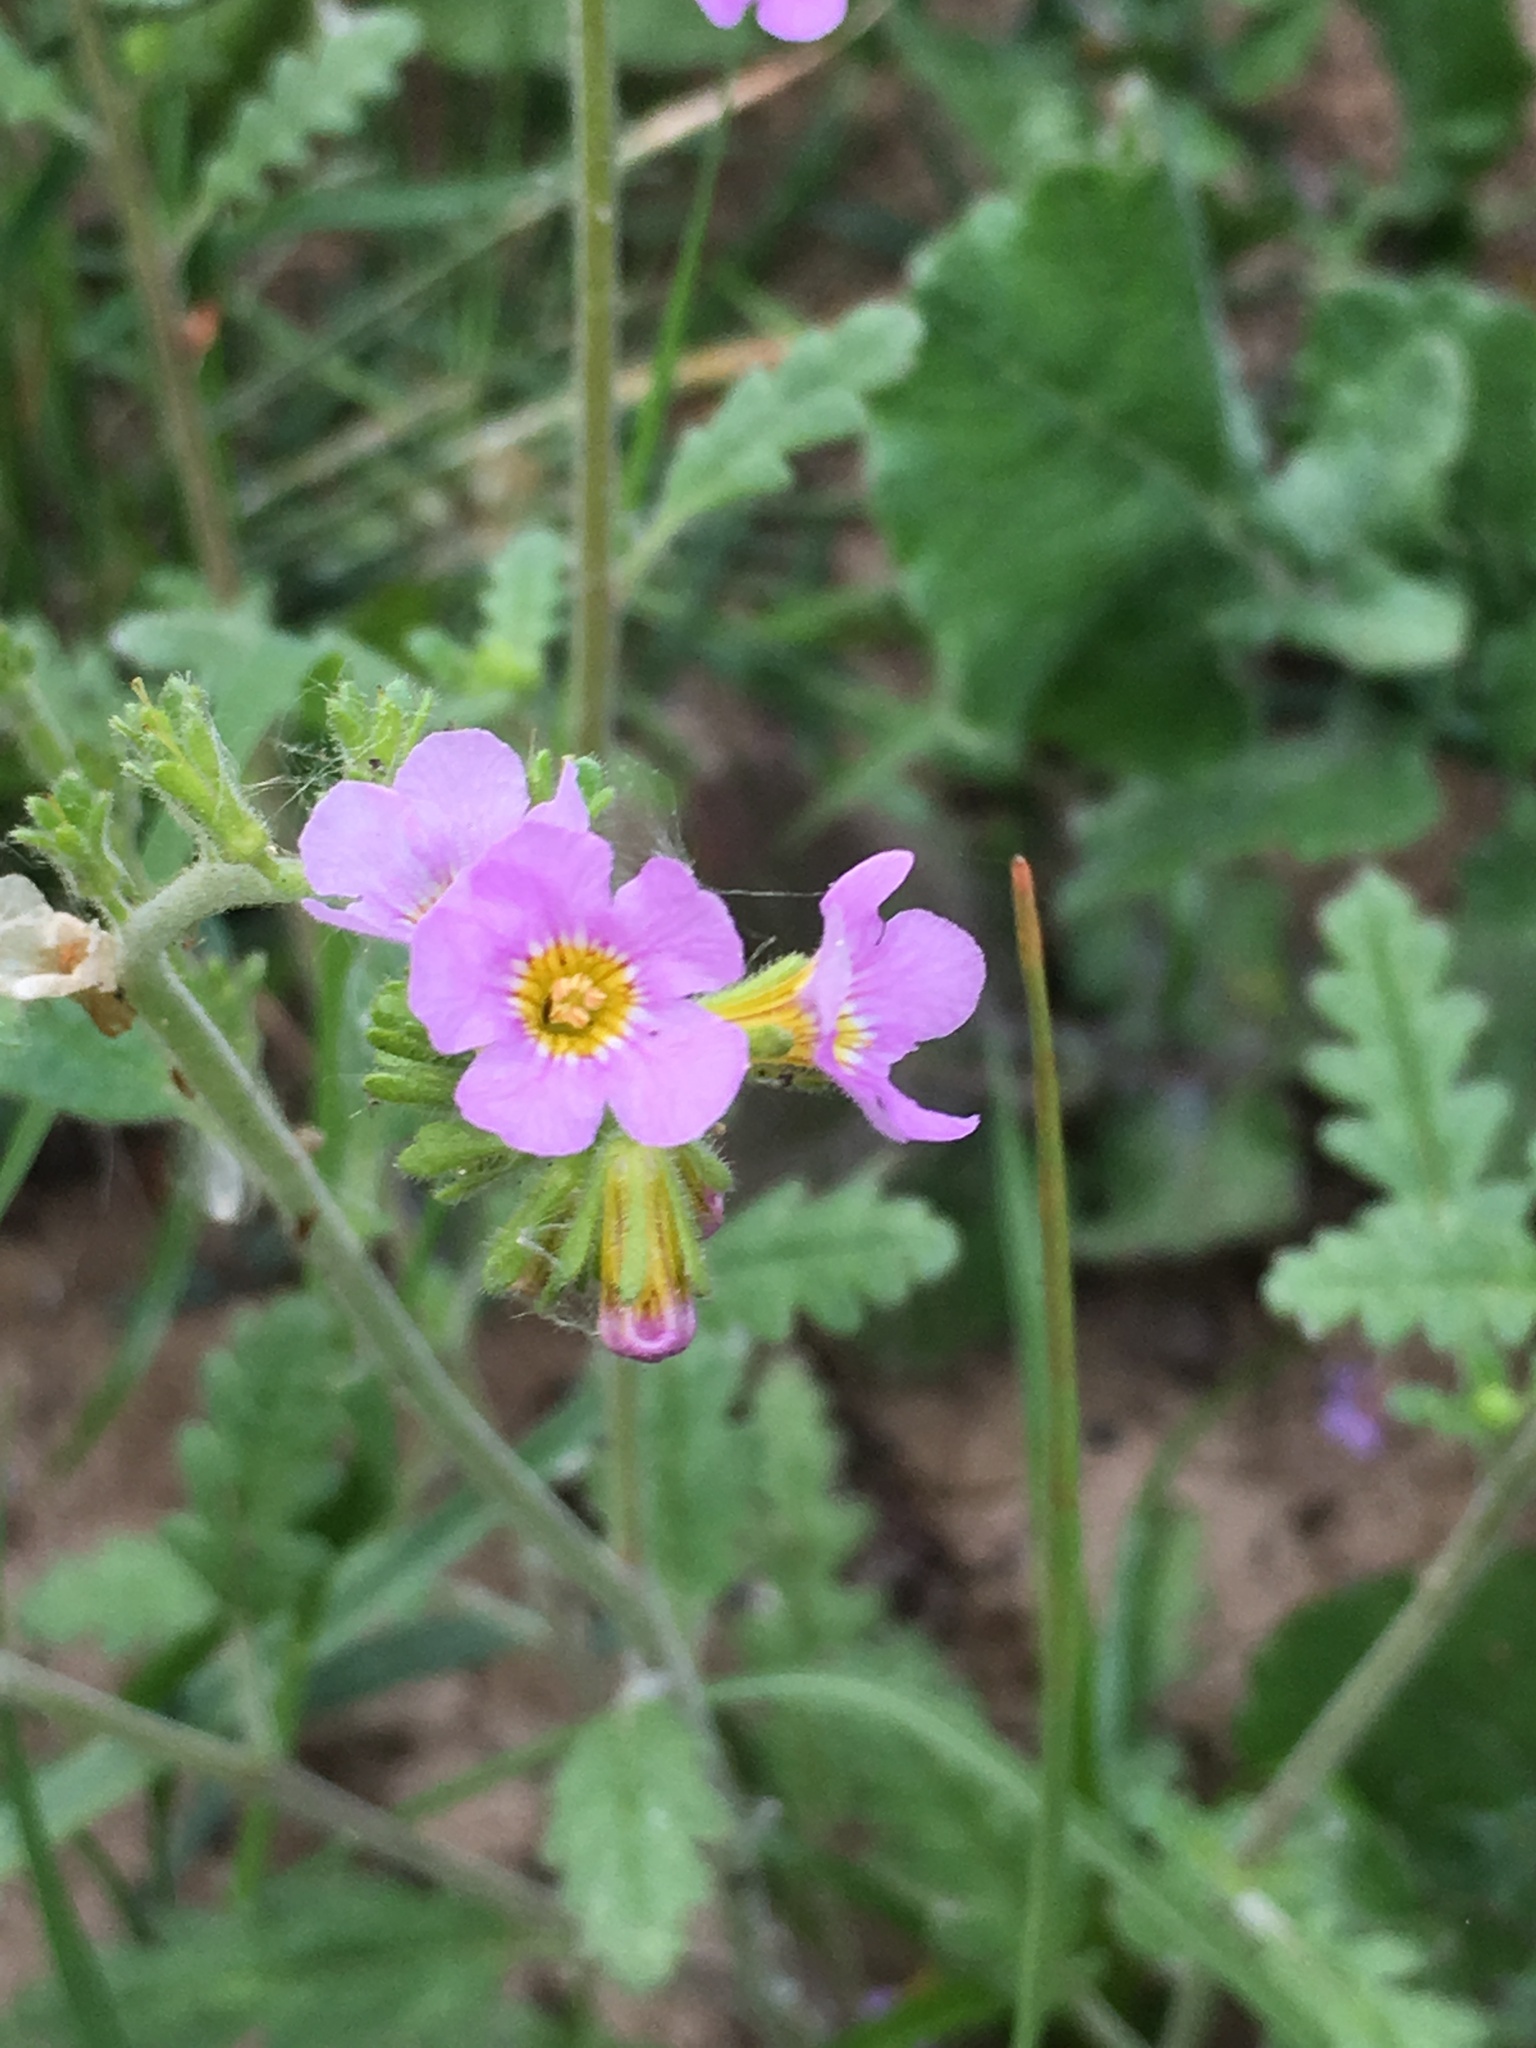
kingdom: Plantae
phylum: Tracheophyta
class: Magnoliopsida
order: Boraginales
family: Hydrophyllaceae
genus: Phacelia
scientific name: Phacelia brachyloba
